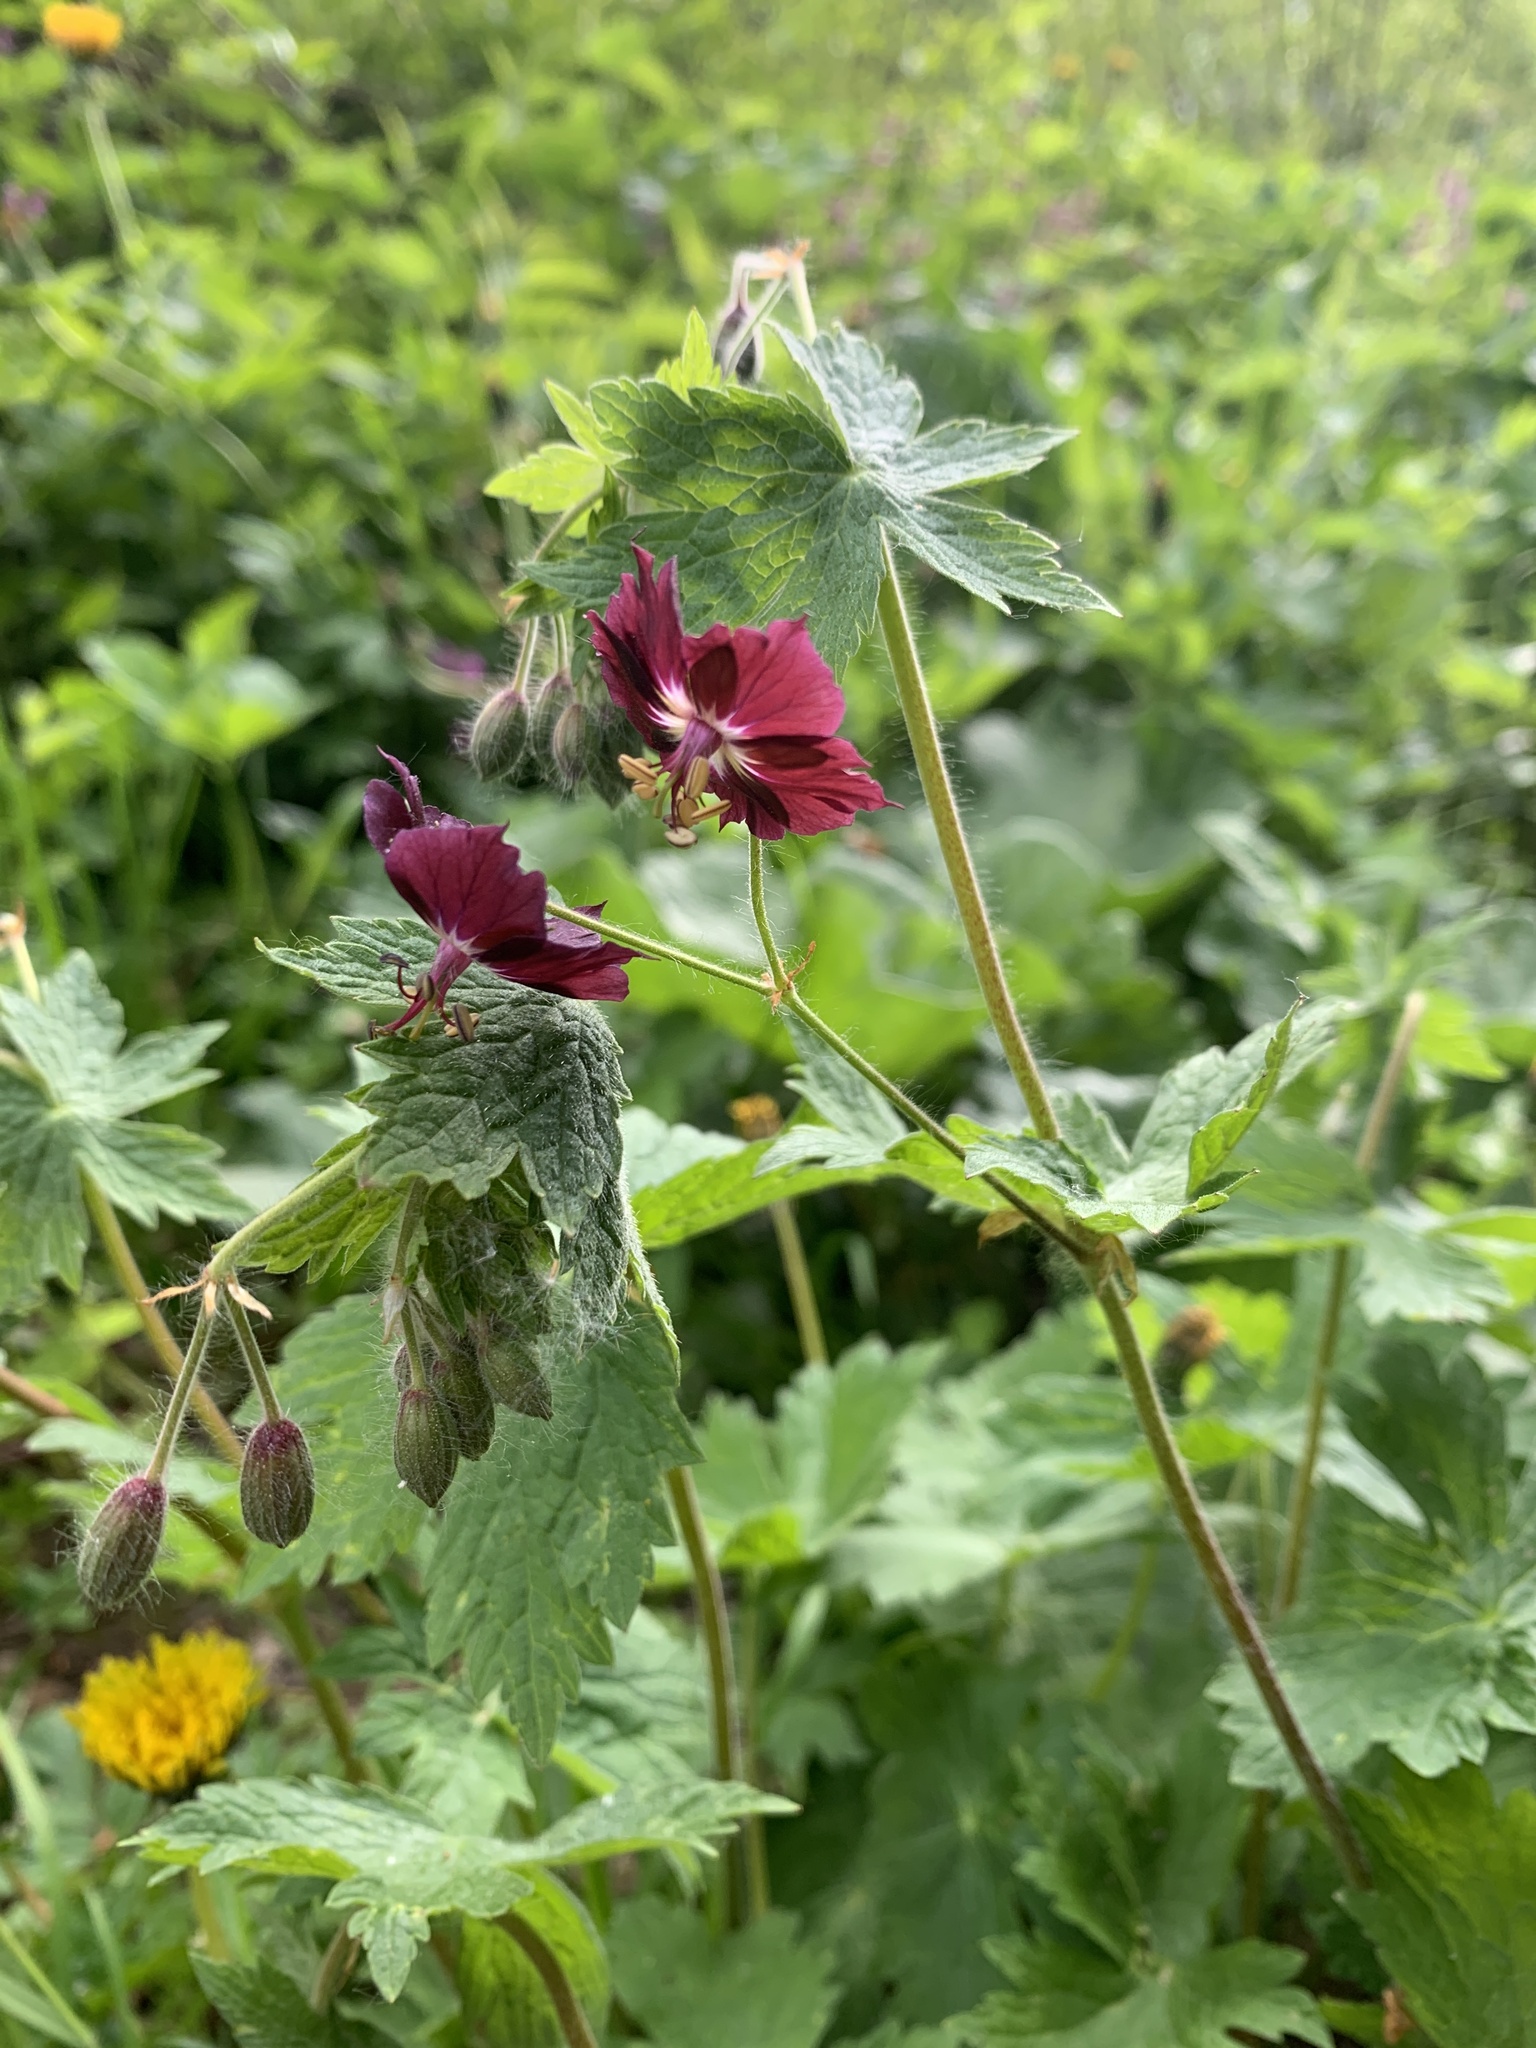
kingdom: Plantae
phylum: Tracheophyta
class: Magnoliopsida
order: Geraniales
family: Geraniaceae
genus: Geranium
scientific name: Geranium phaeum
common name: Dusky crane's-bill
